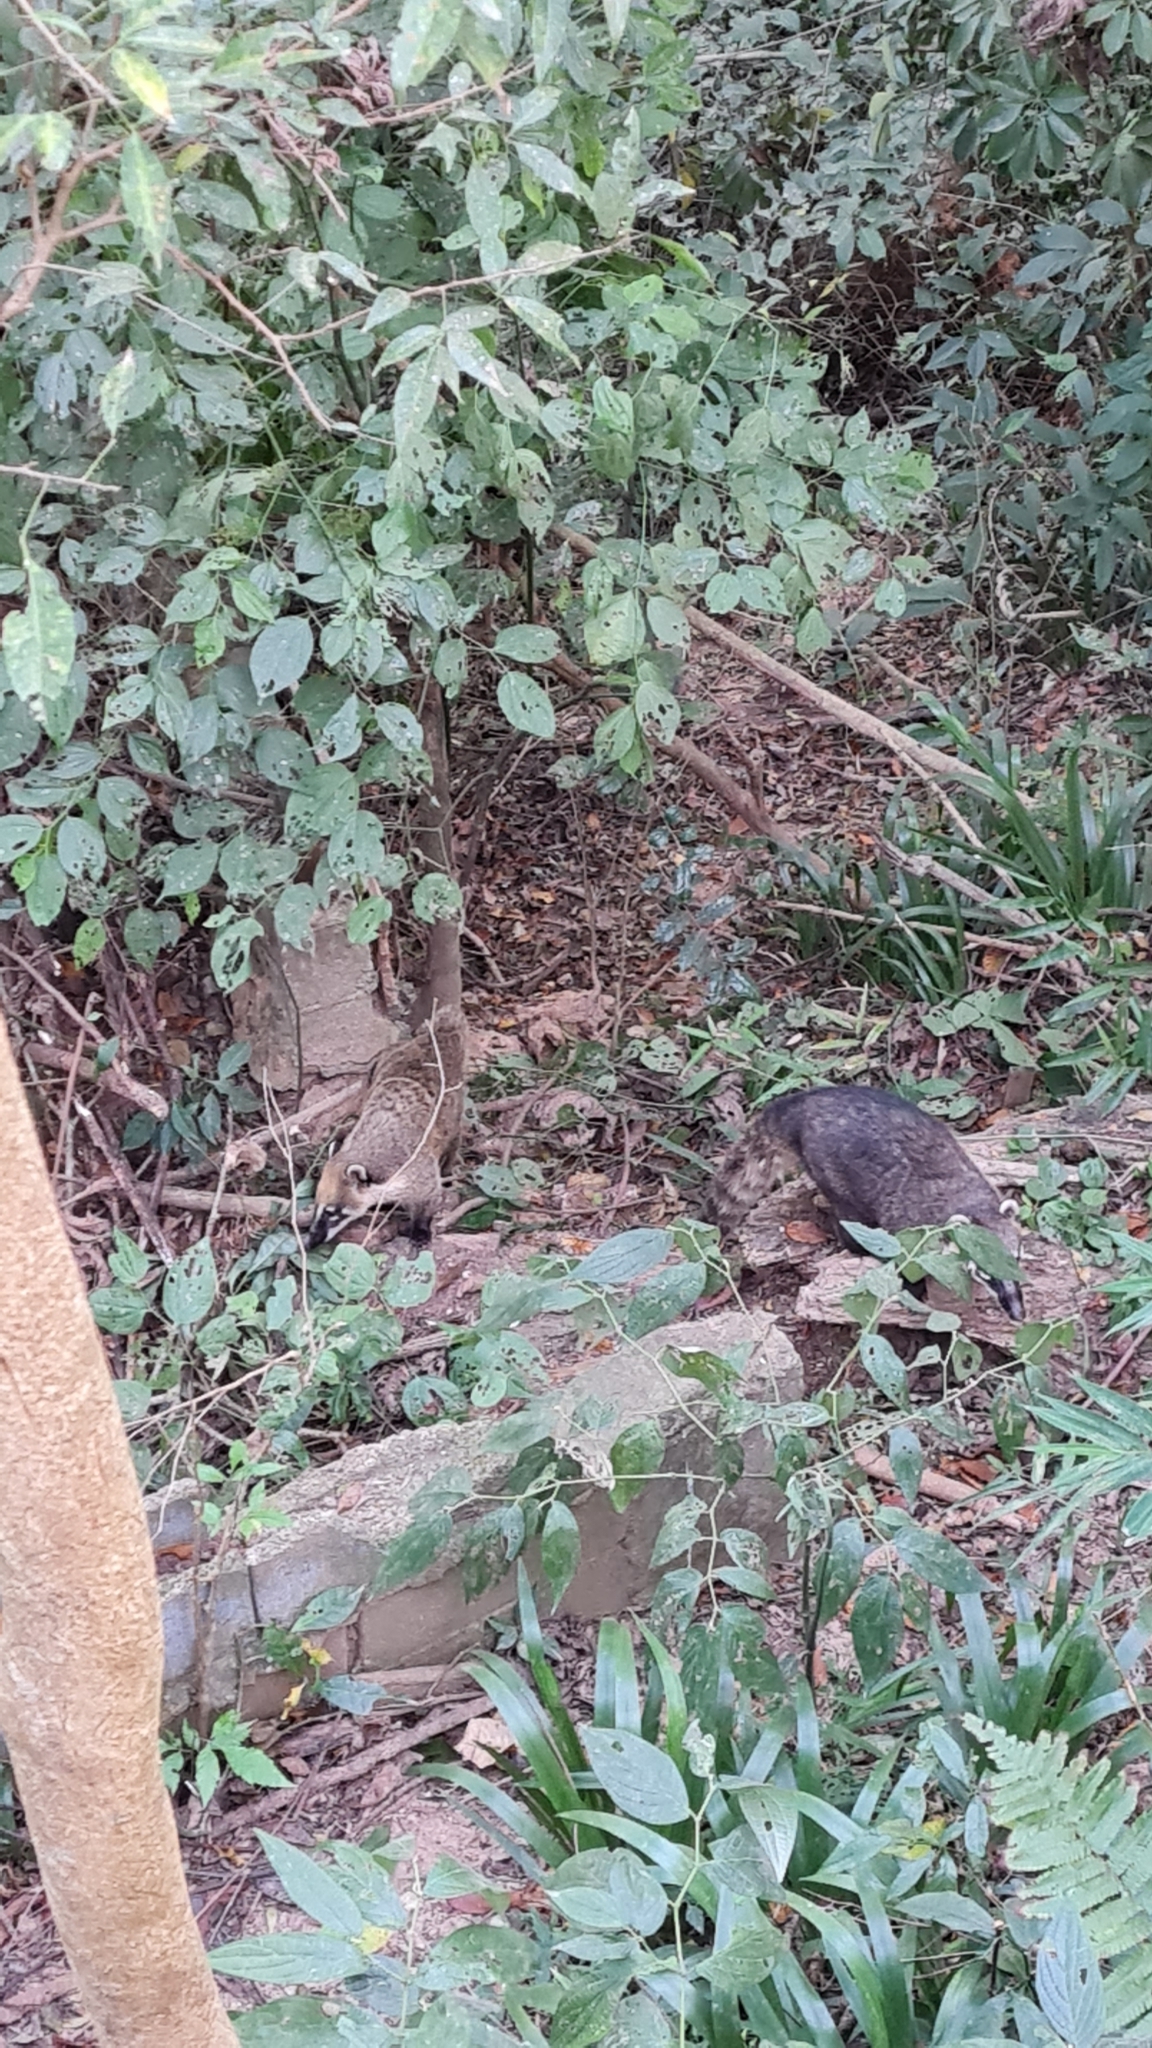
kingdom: Animalia
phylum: Chordata
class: Mammalia
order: Carnivora
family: Procyonidae
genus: Nasua
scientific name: Nasua nasua
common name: South american coati
